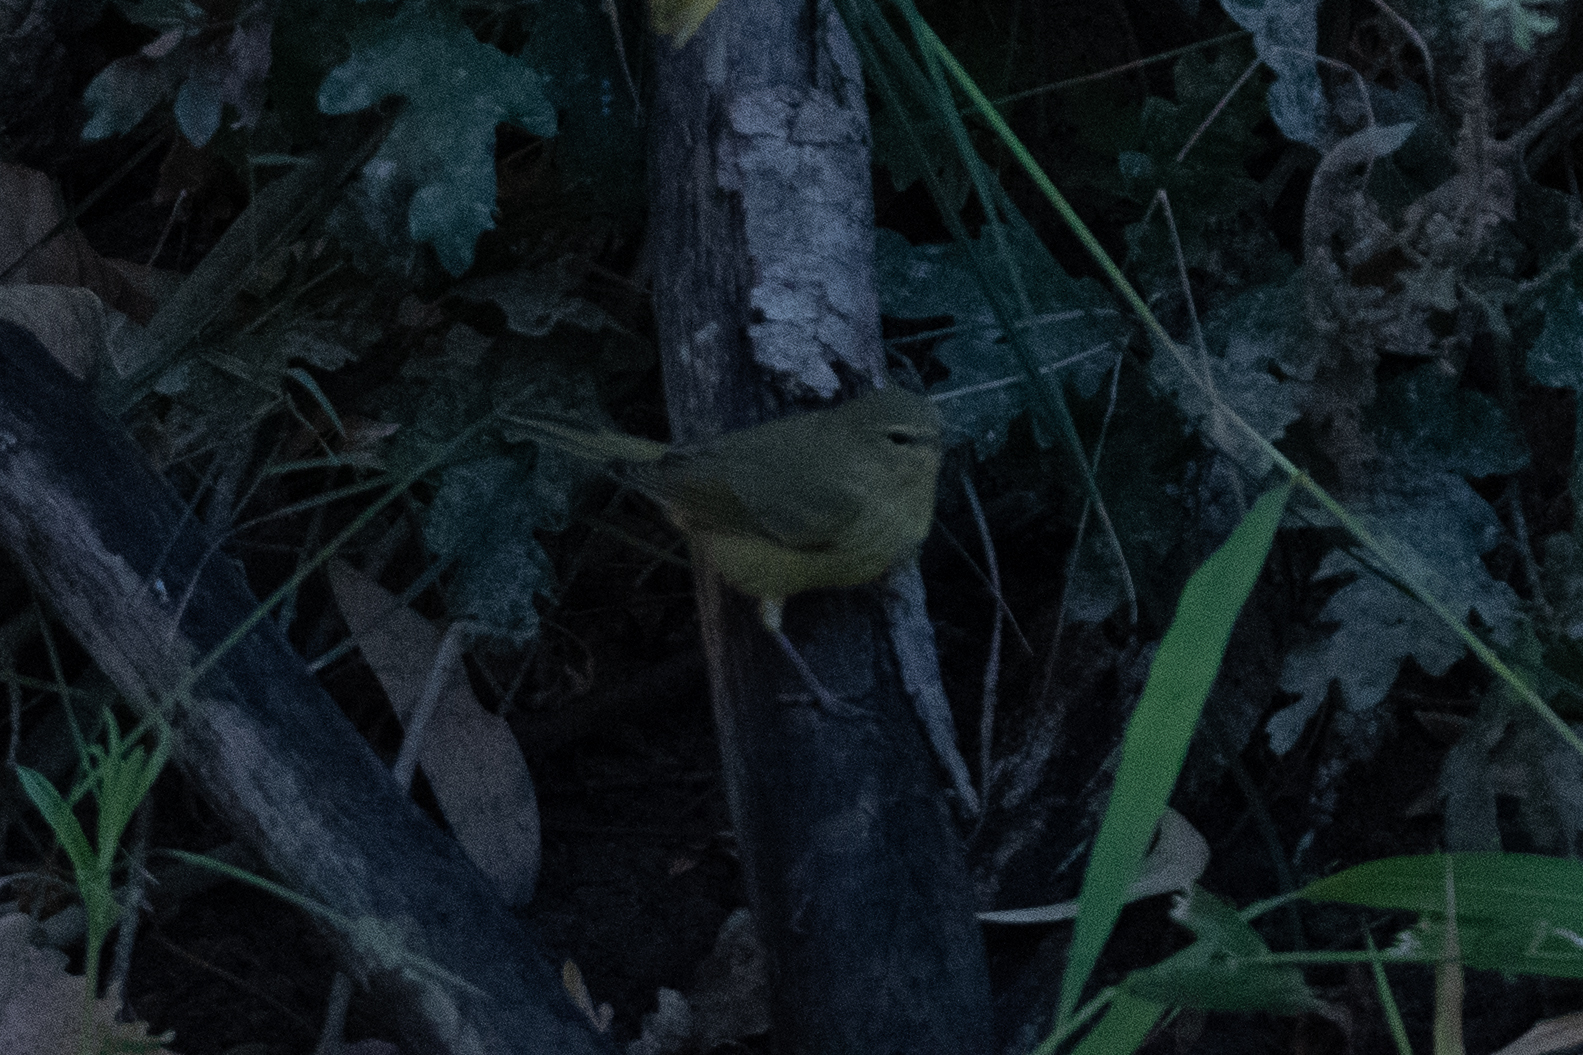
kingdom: Animalia
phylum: Chordata
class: Aves
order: Passeriformes
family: Parulidae
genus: Leiothlypis
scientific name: Leiothlypis celata
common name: Orange-crowned warbler
